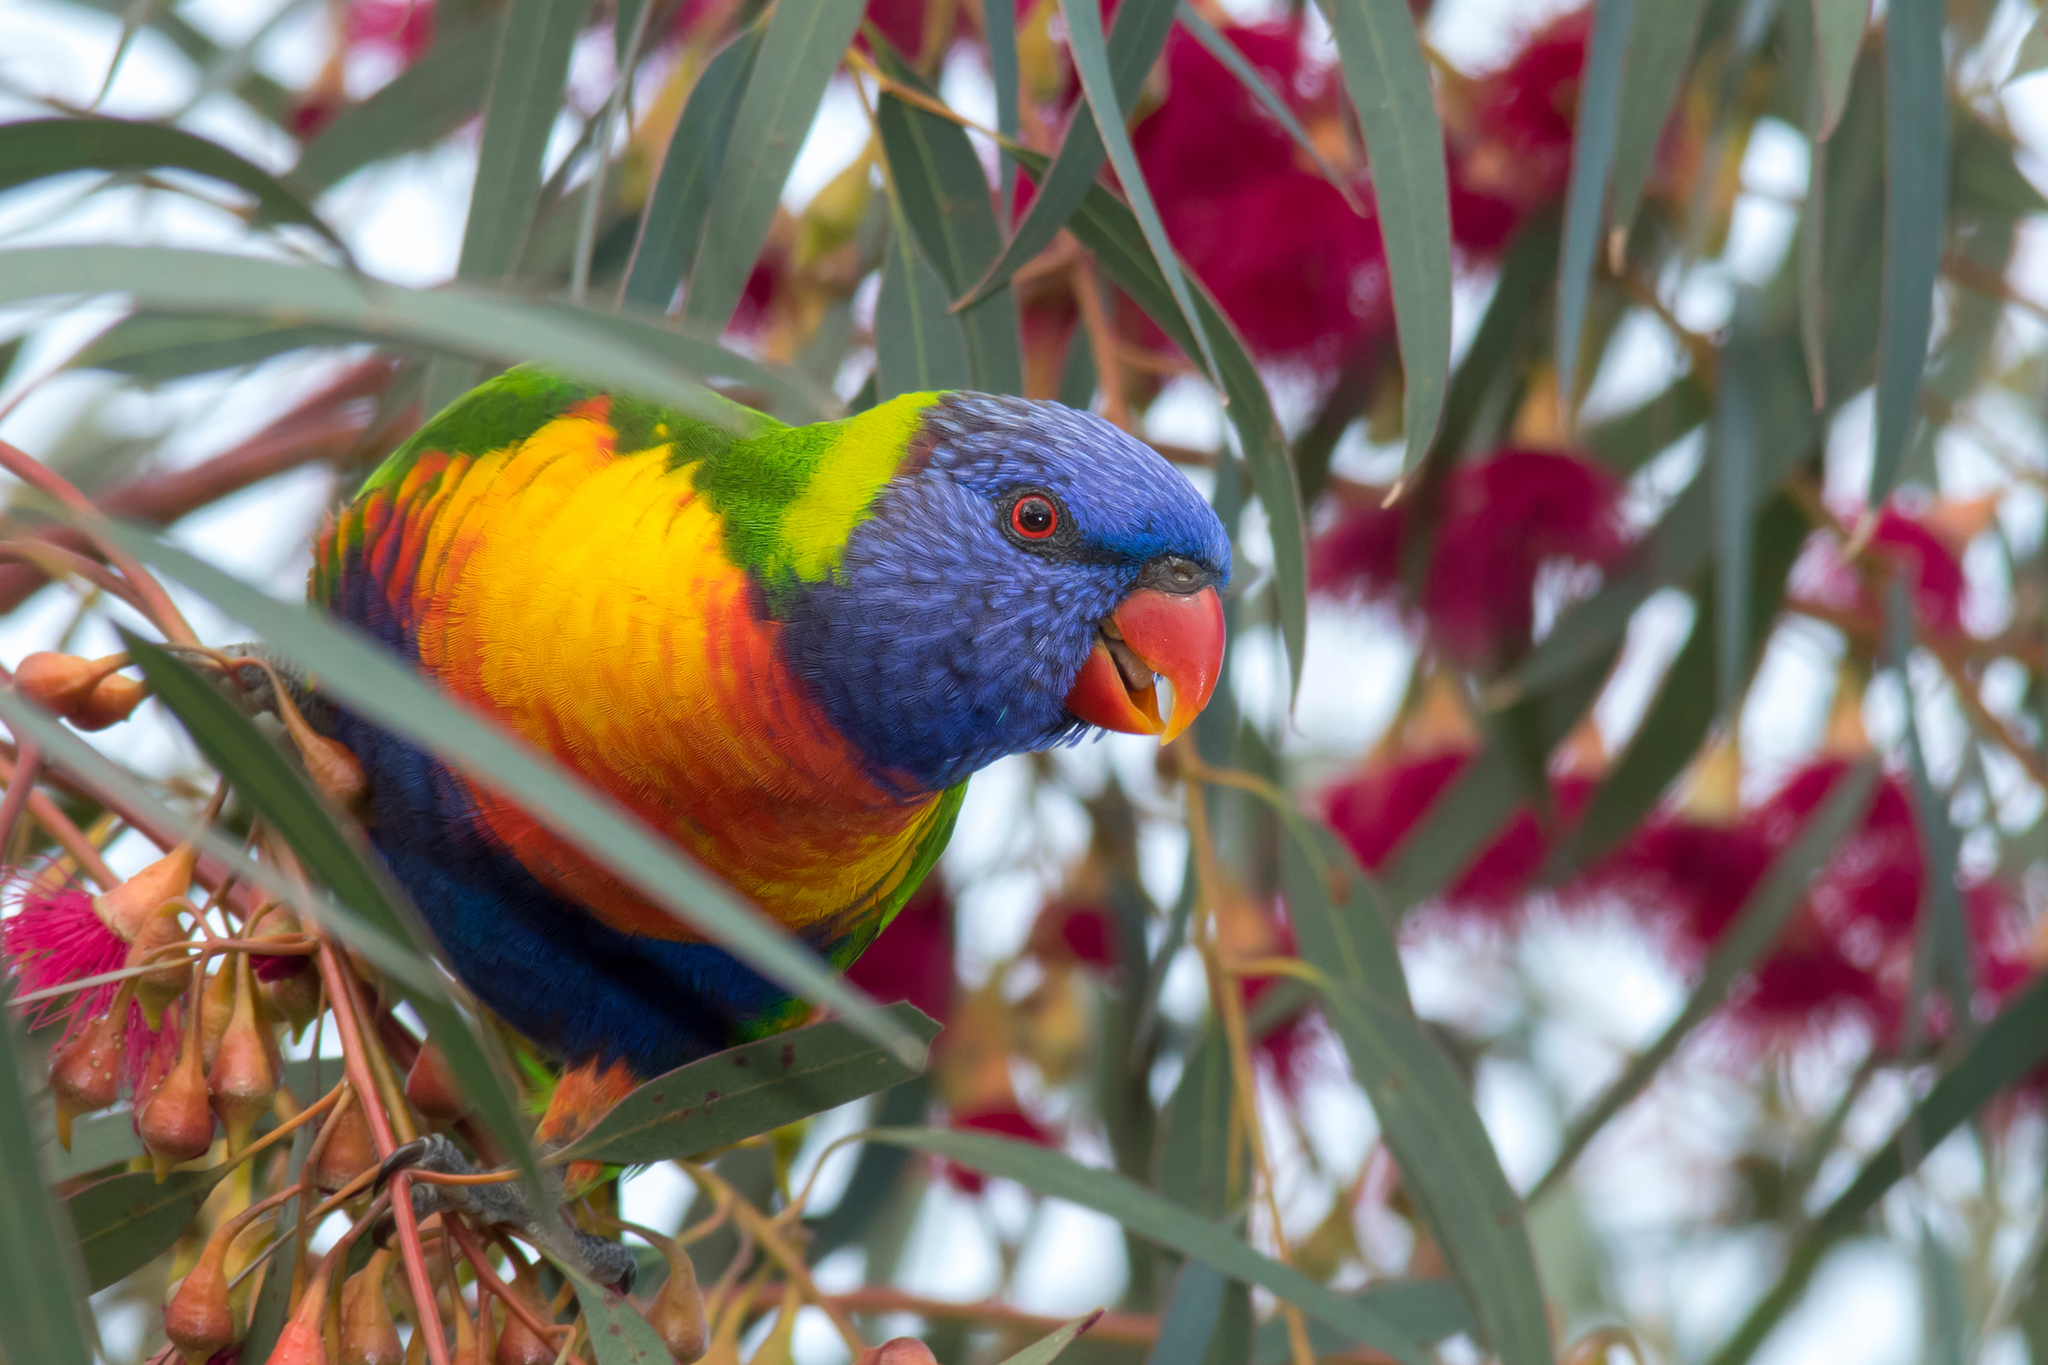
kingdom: Animalia
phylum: Chordata
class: Aves
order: Psittaciformes
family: Psittacidae
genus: Trichoglossus
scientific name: Trichoglossus haematodus
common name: Coconut lorikeet
